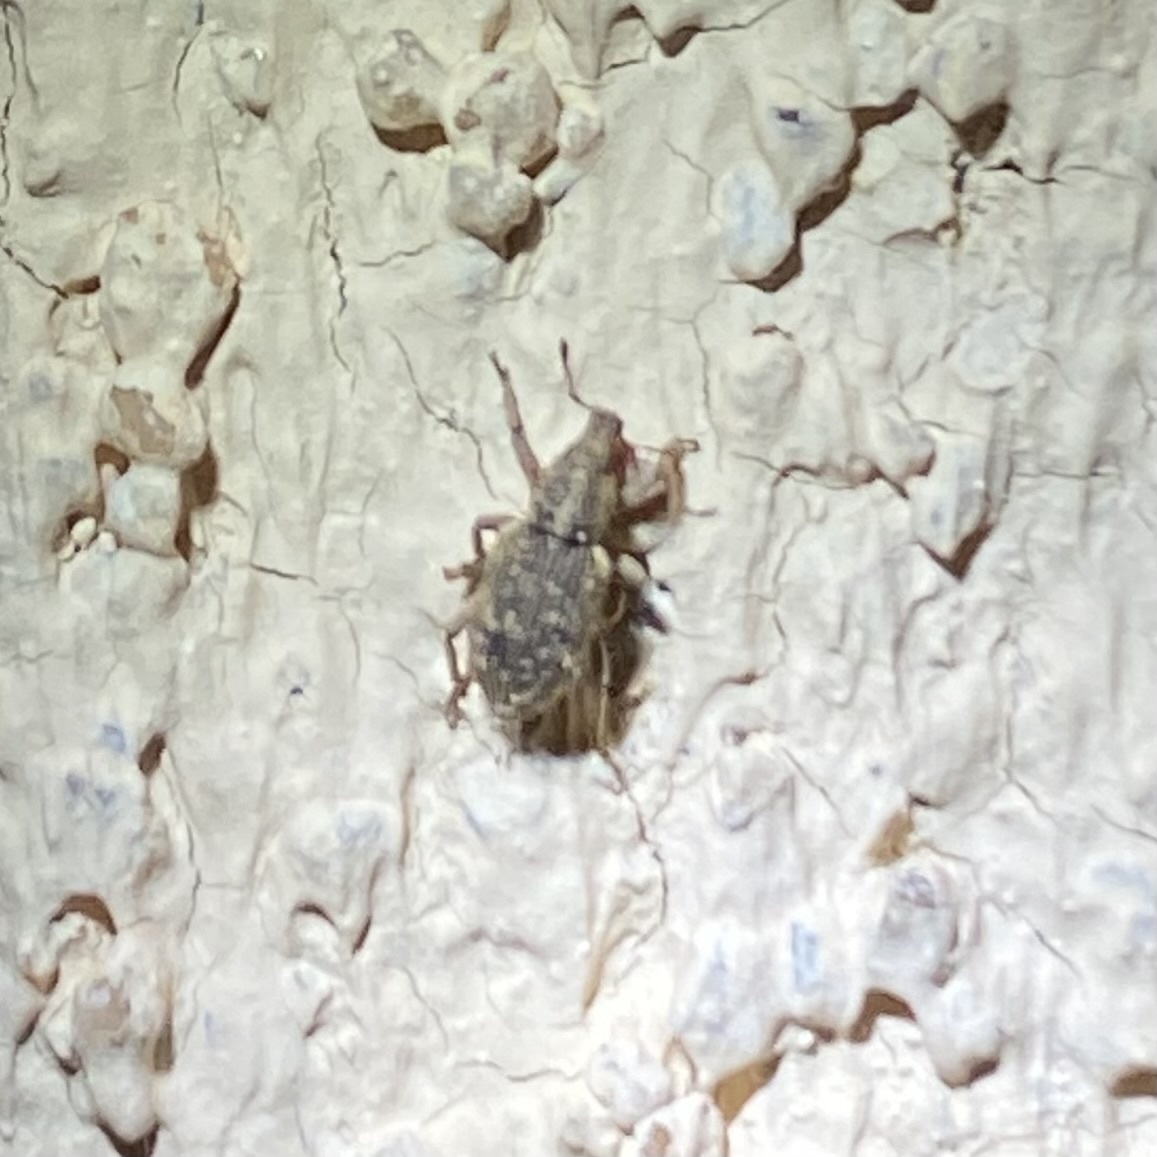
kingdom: Animalia
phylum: Arthropoda
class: Insecta
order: Coleoptera
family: Curculionidae
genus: Listronotus
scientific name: Listronotus
